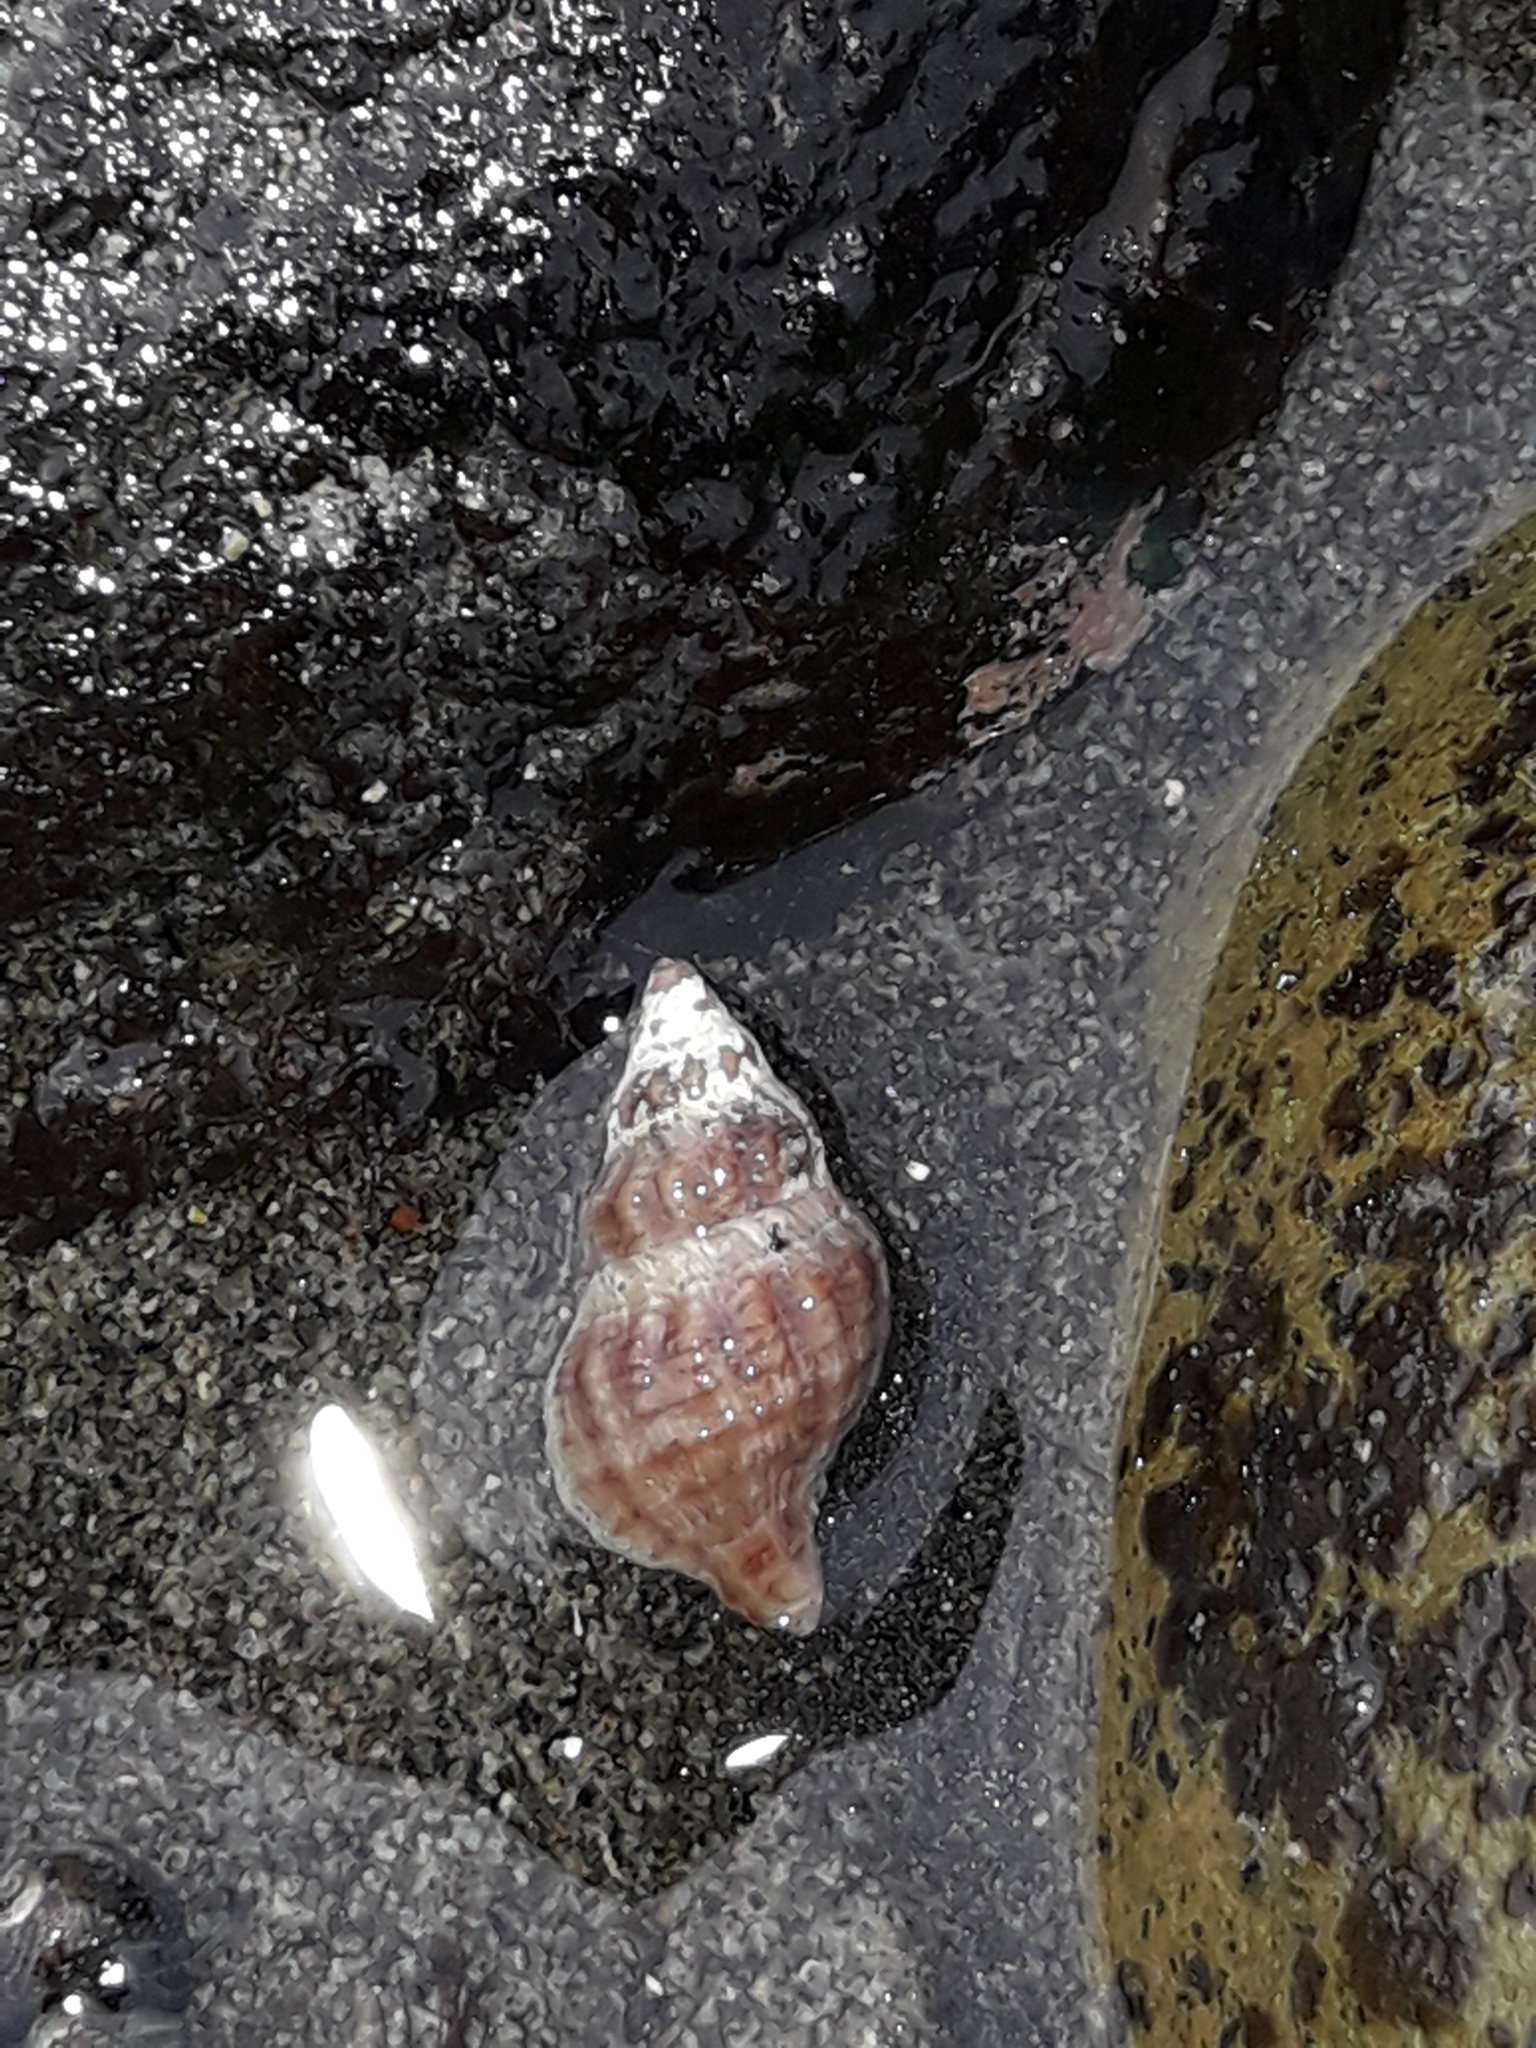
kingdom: Animalia
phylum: Mollusca
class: Gastropoda
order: Neogastropoda
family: Muricidae
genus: Lamellitrophon
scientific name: Lamellitrophon traversi
